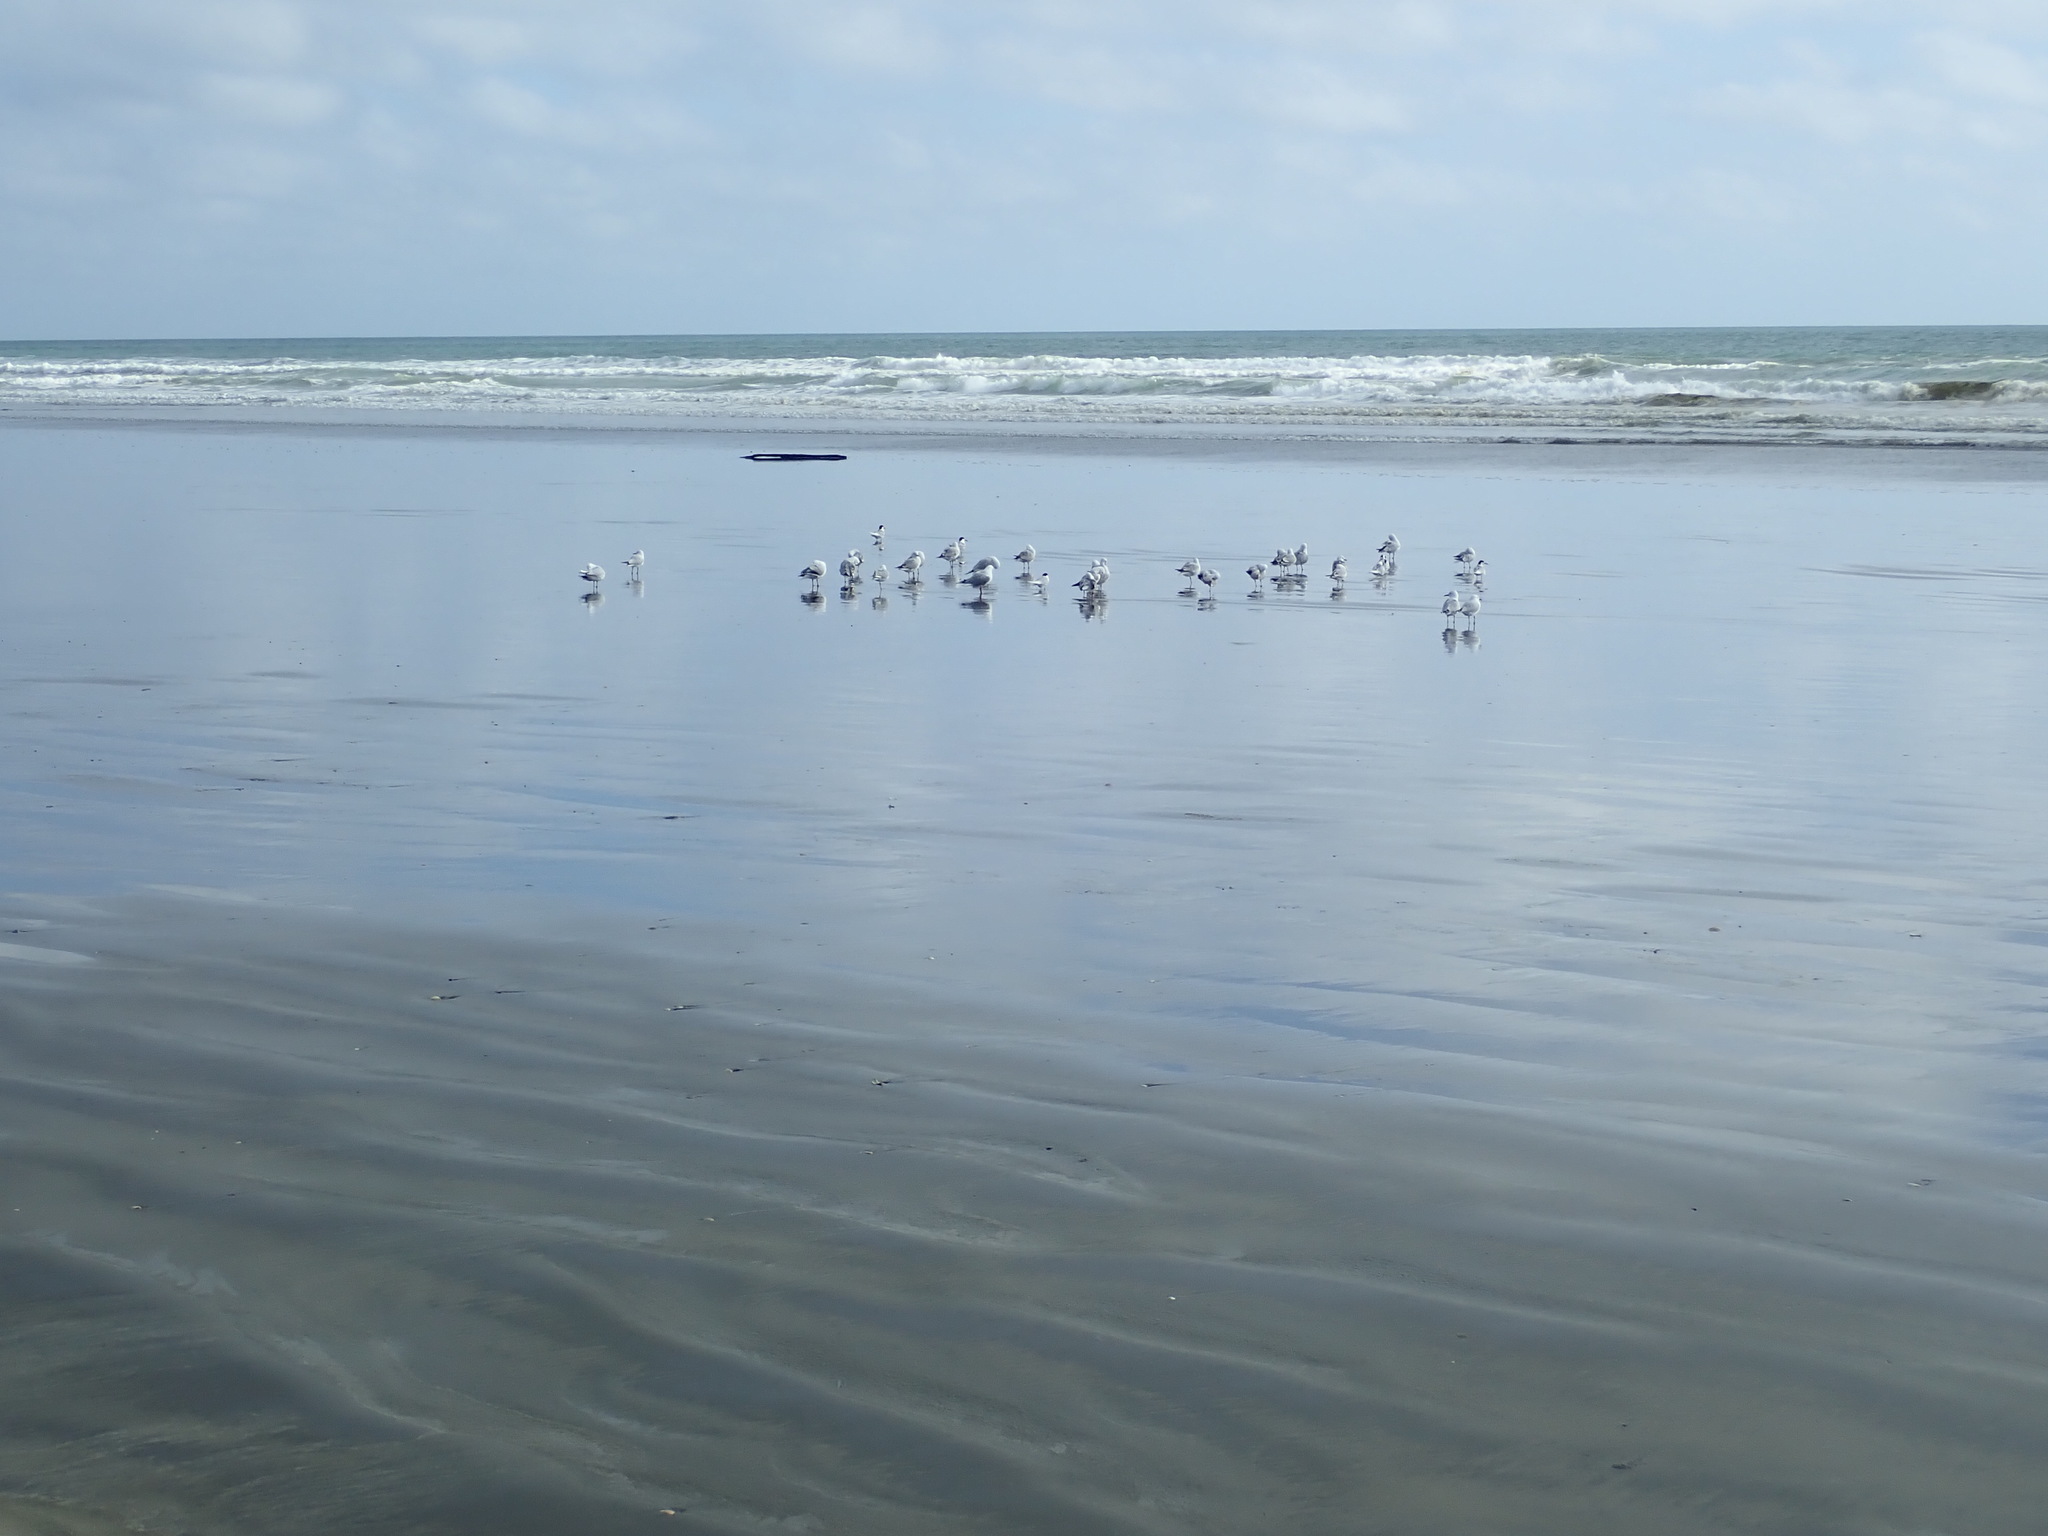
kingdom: Animalia
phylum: Chordata
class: Aves
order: Charadriiformes
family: Laridae
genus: Sterna
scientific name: Sterna striata
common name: White-fronted tern
